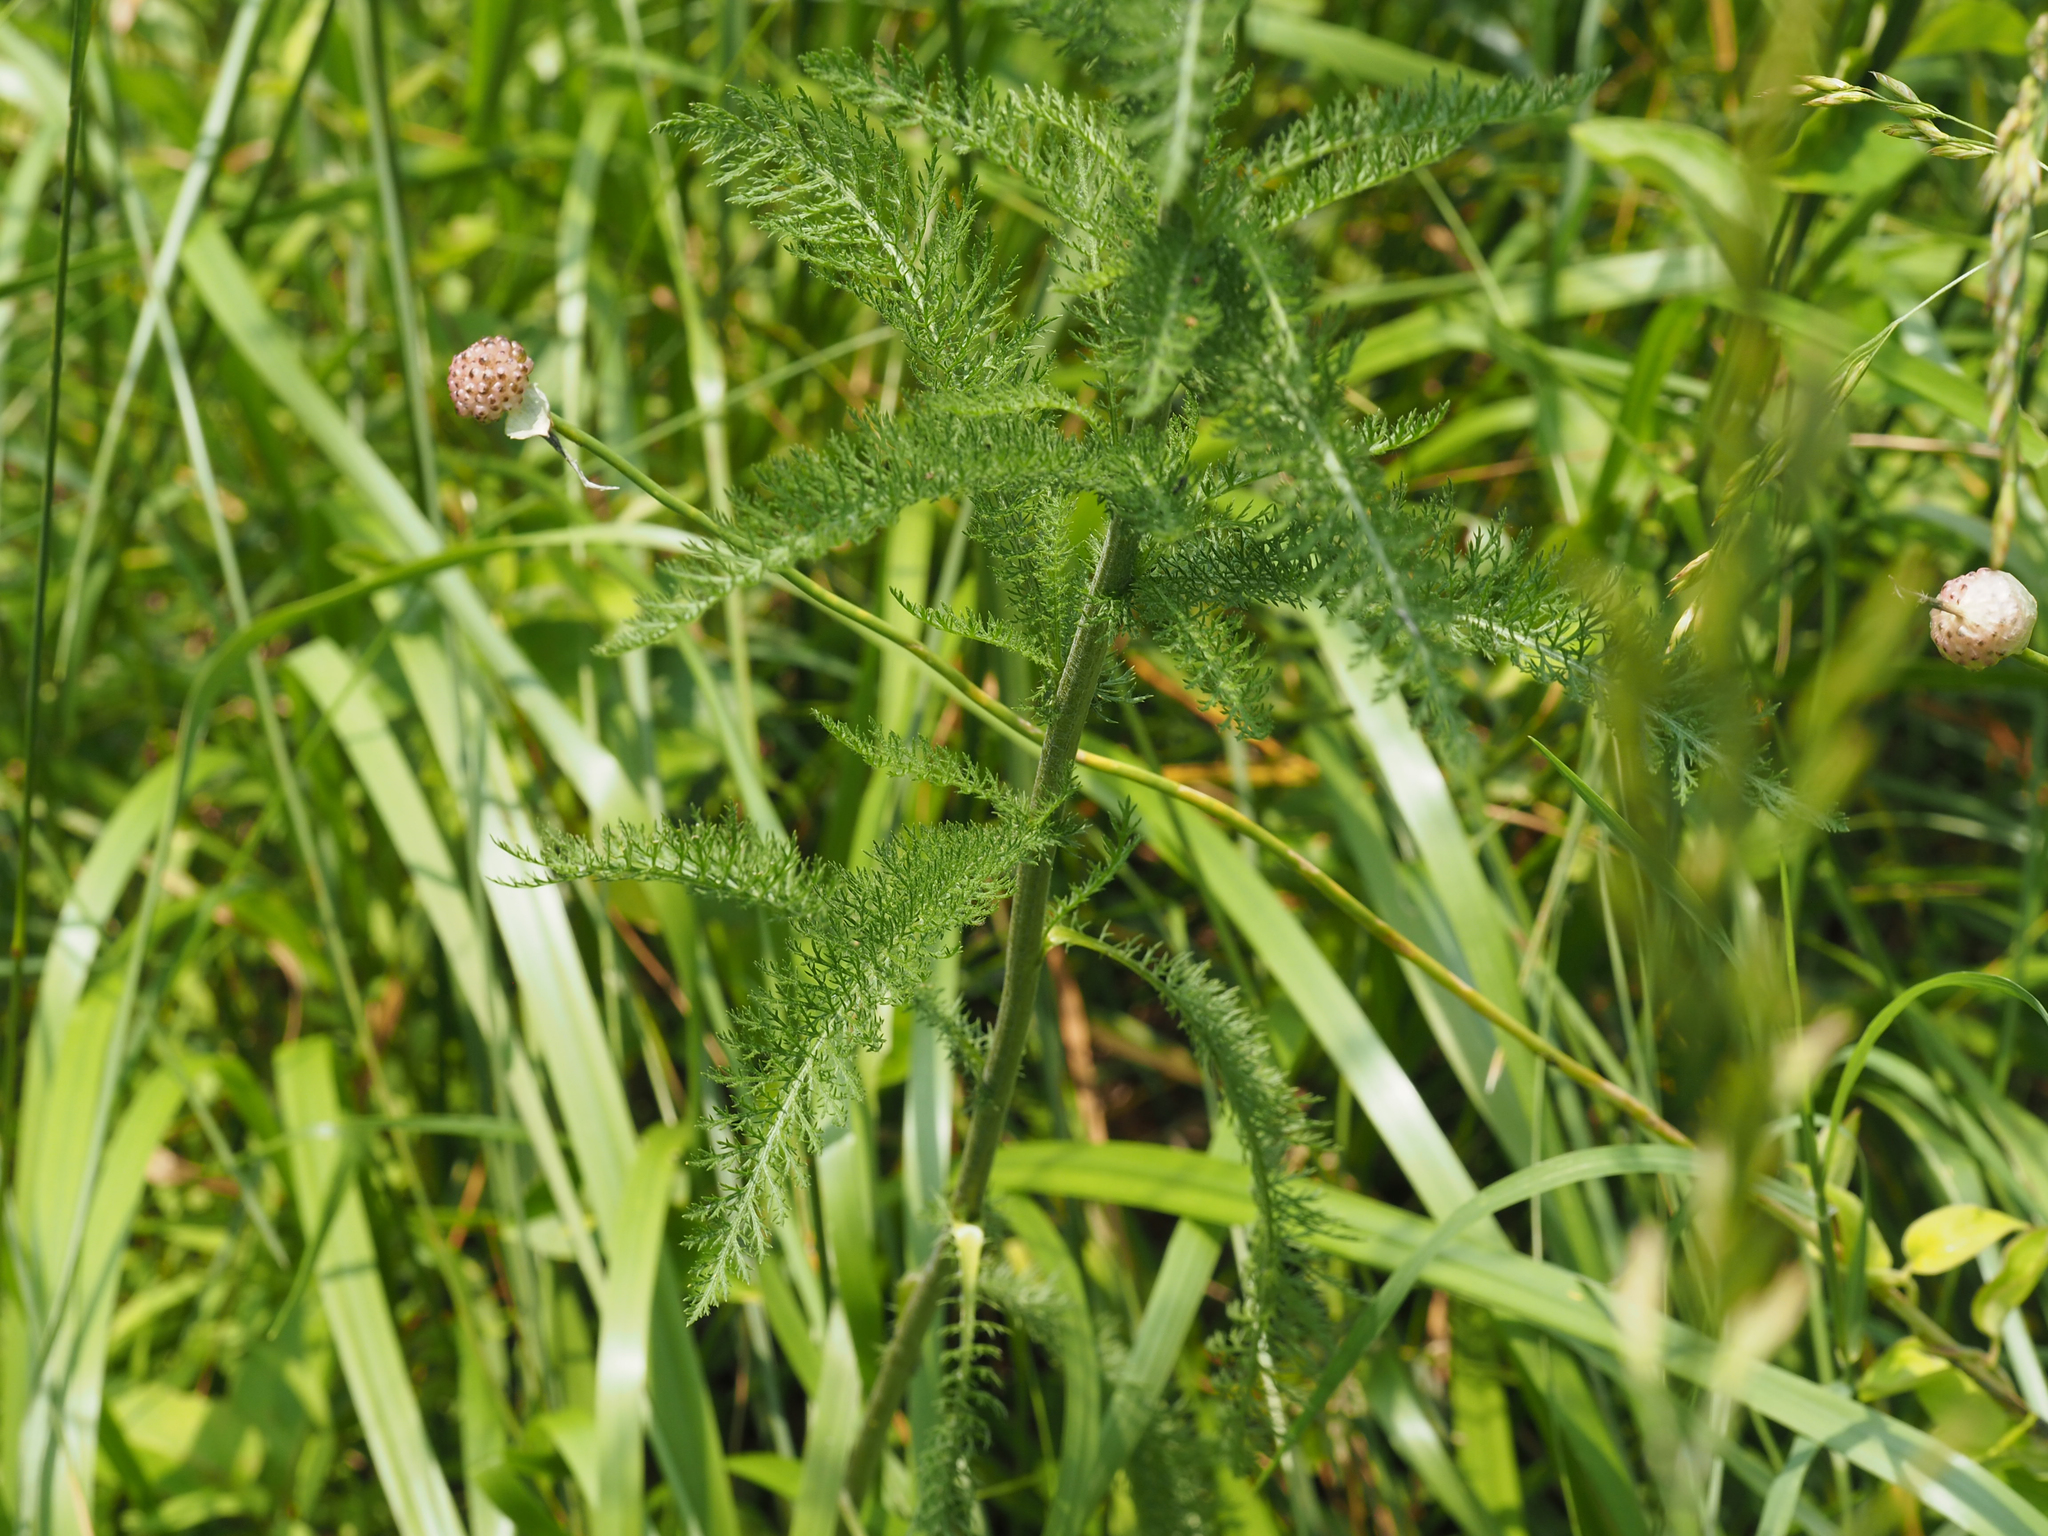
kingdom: Plantae
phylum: Tracheophyta
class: Magnoliopsida
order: Asterales
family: Asteraceae
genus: Achillea
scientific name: Achillea millefolium
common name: Yarrow
